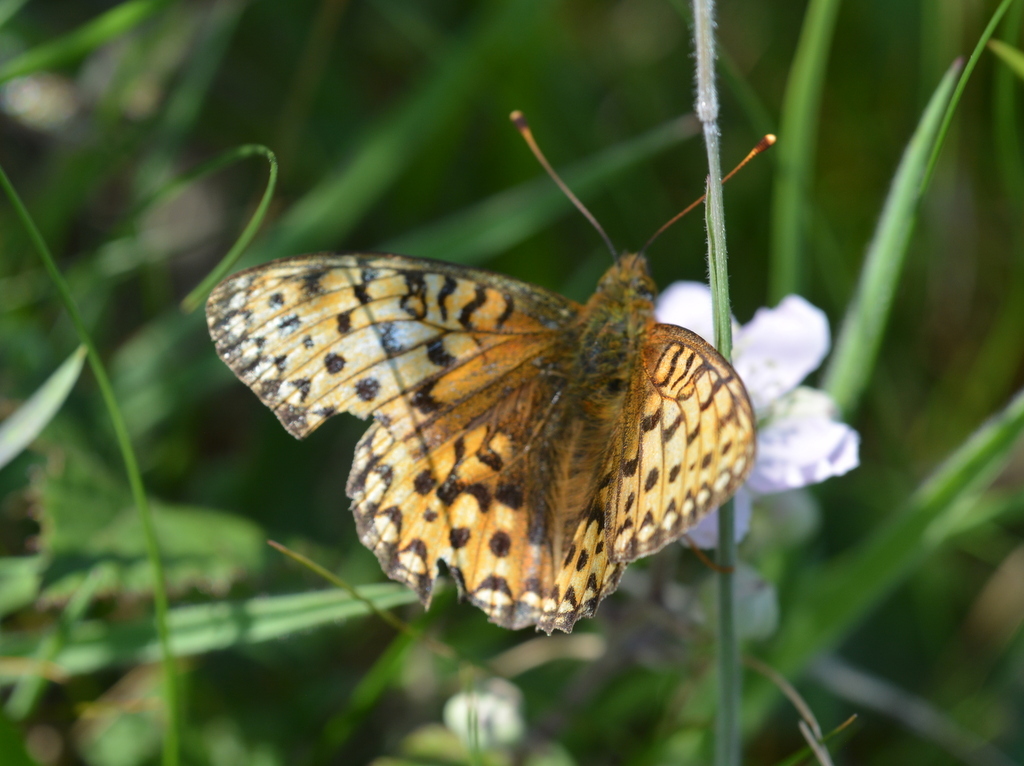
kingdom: Animalia
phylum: Arthropoda
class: Insecta
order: Lepidoptera
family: Nymphalidae
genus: Speyeria
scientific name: Speyeria aglaja
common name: Dark green fritillary
